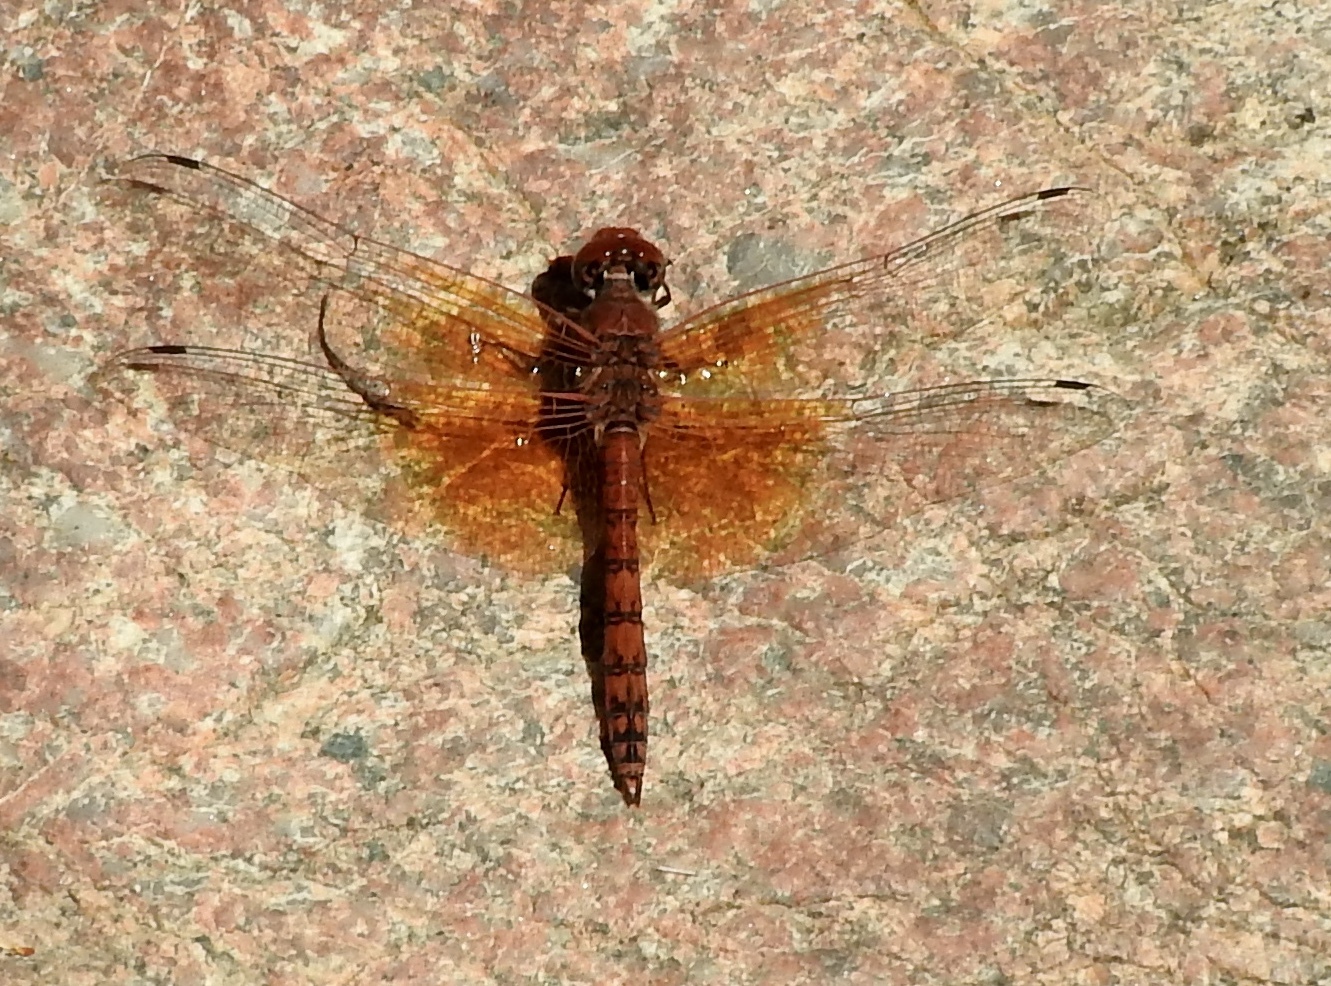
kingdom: Animalia
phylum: Arthropoda
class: Insecta
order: Odonata
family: Libellulidae
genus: Paltothemis
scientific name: Paltothemis lineatipes
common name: Red rock skimmer
